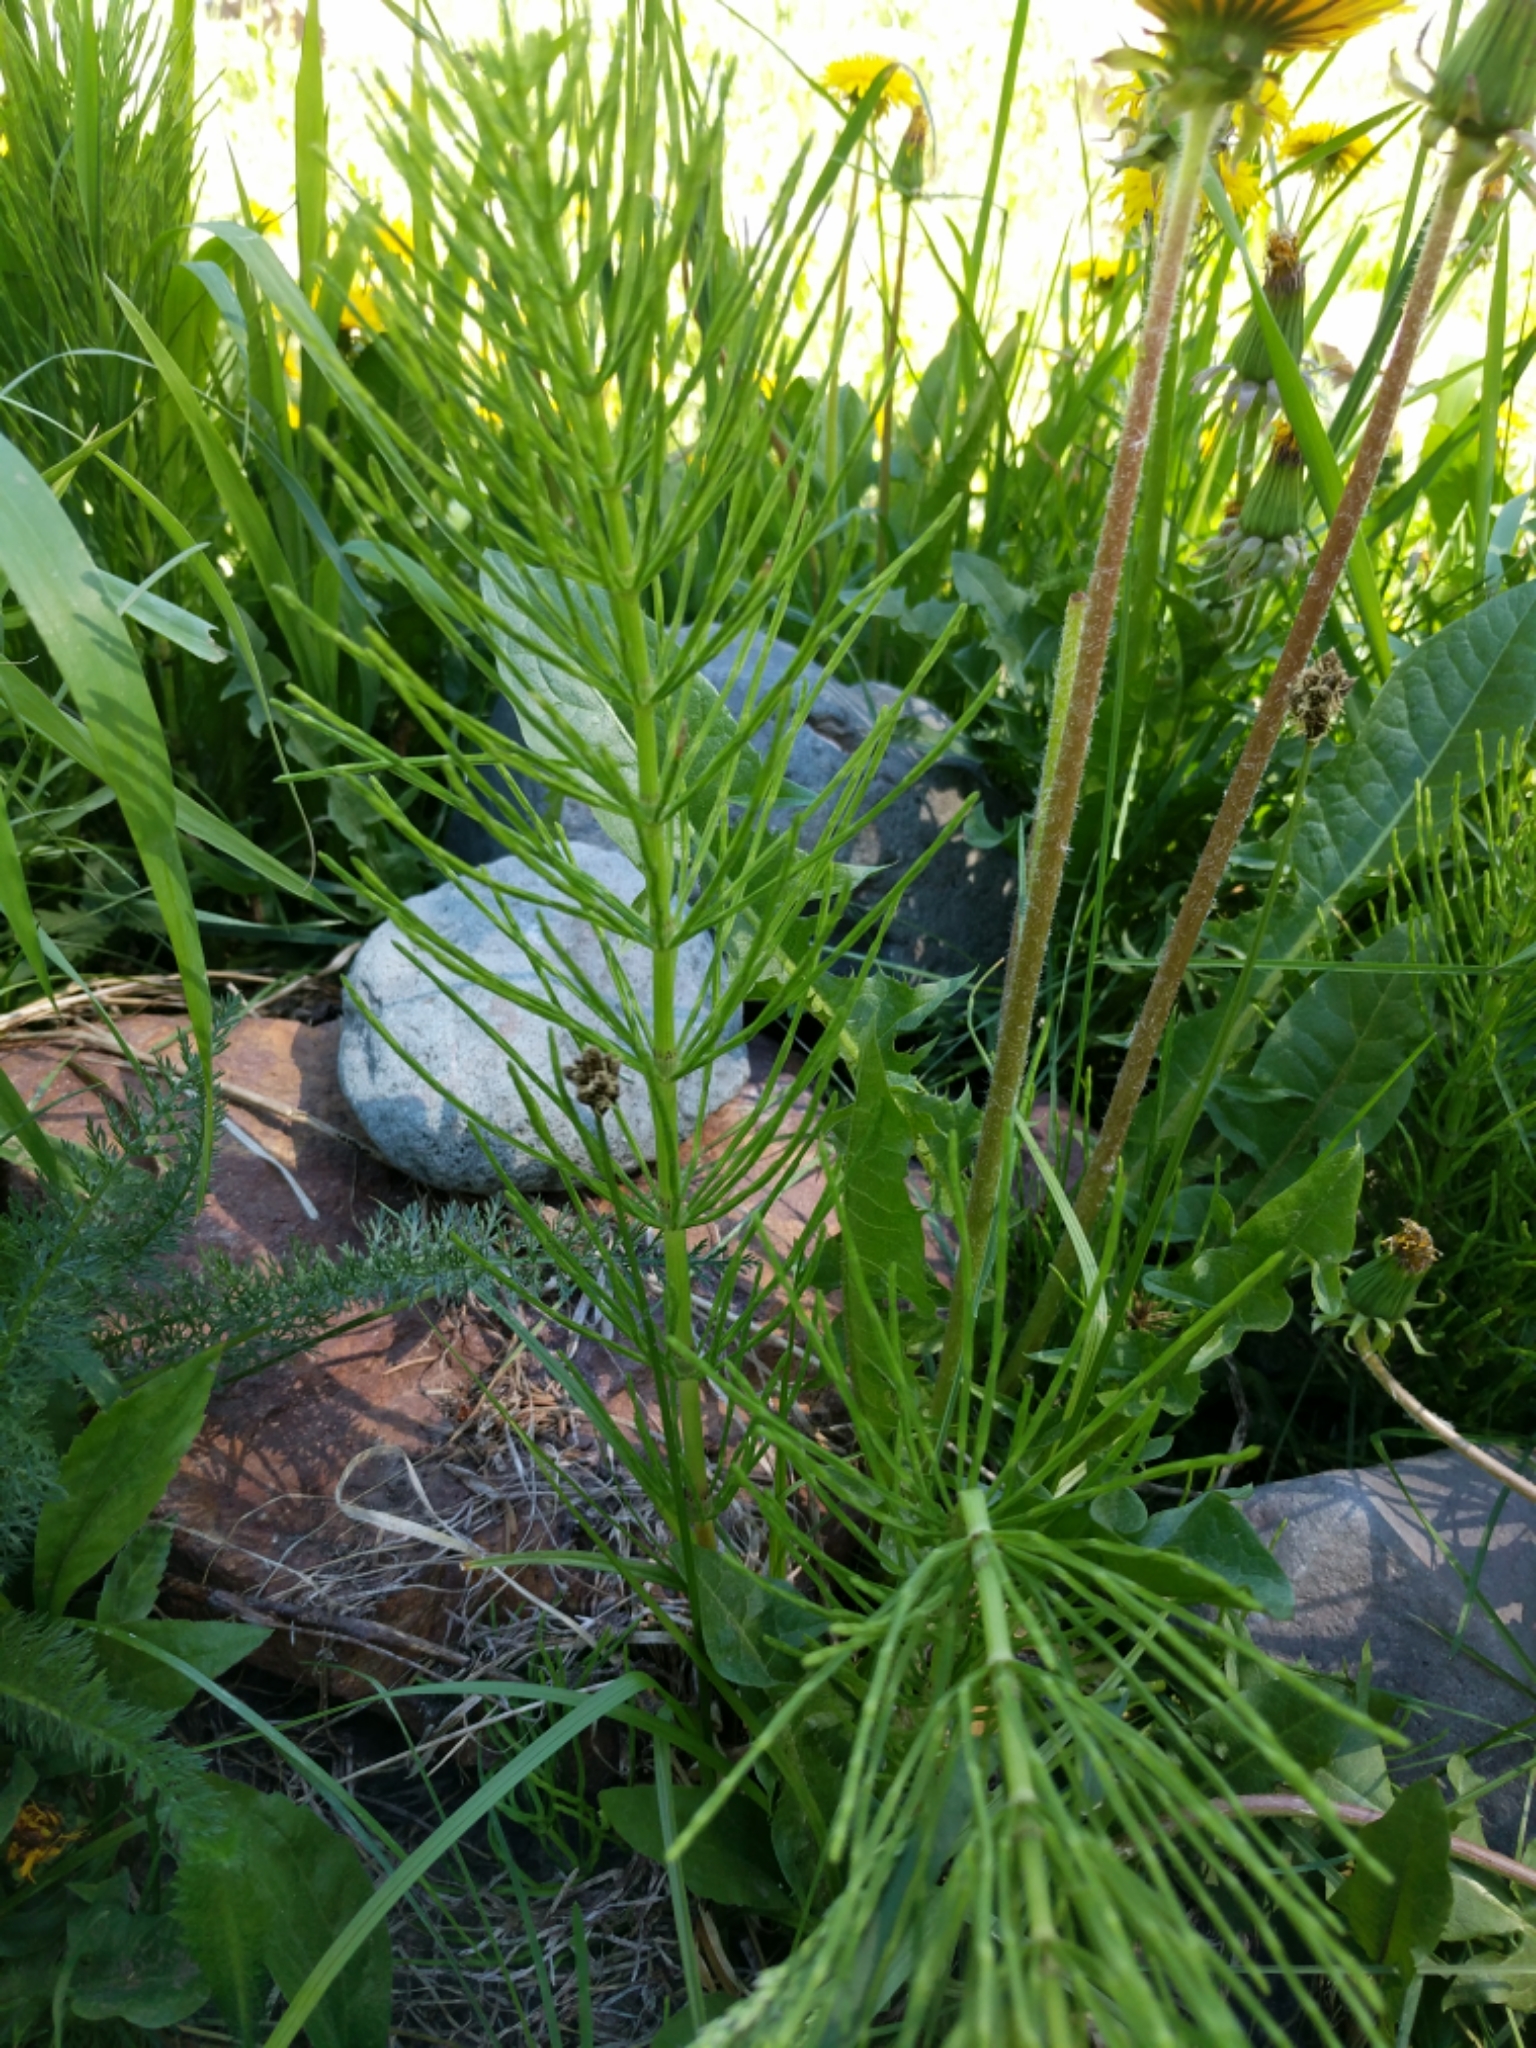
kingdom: Plantae
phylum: Tracheophyta
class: Polypodiopsida
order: Equisetales
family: Equisetaceae
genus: Equisetum
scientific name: Equisetum arvense
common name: Field horsetail
